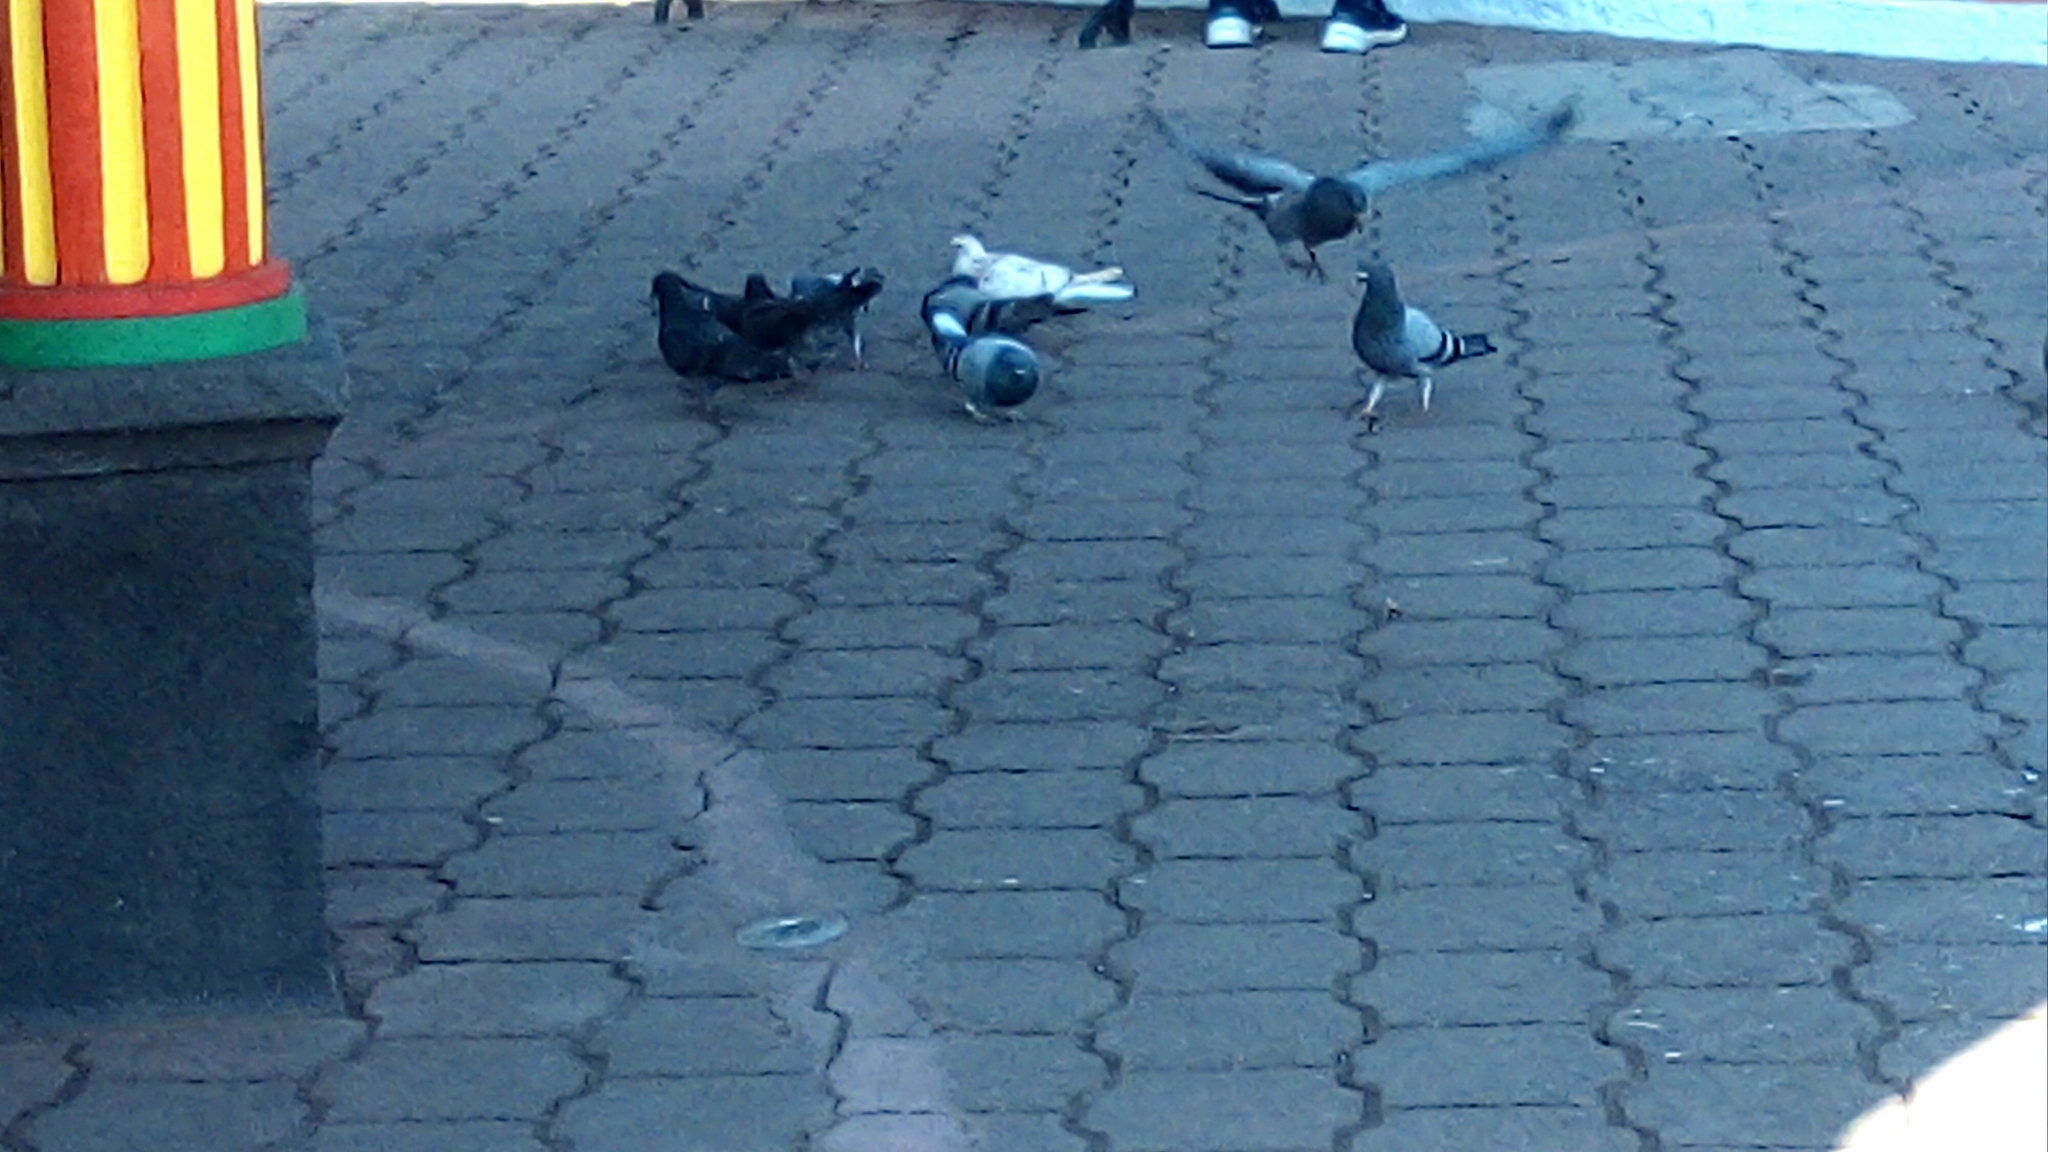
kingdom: Animalia
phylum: Chordata
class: Aves
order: Columbiformes
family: Columbidae
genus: Columba
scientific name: Columba livia
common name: Rock pigeon
